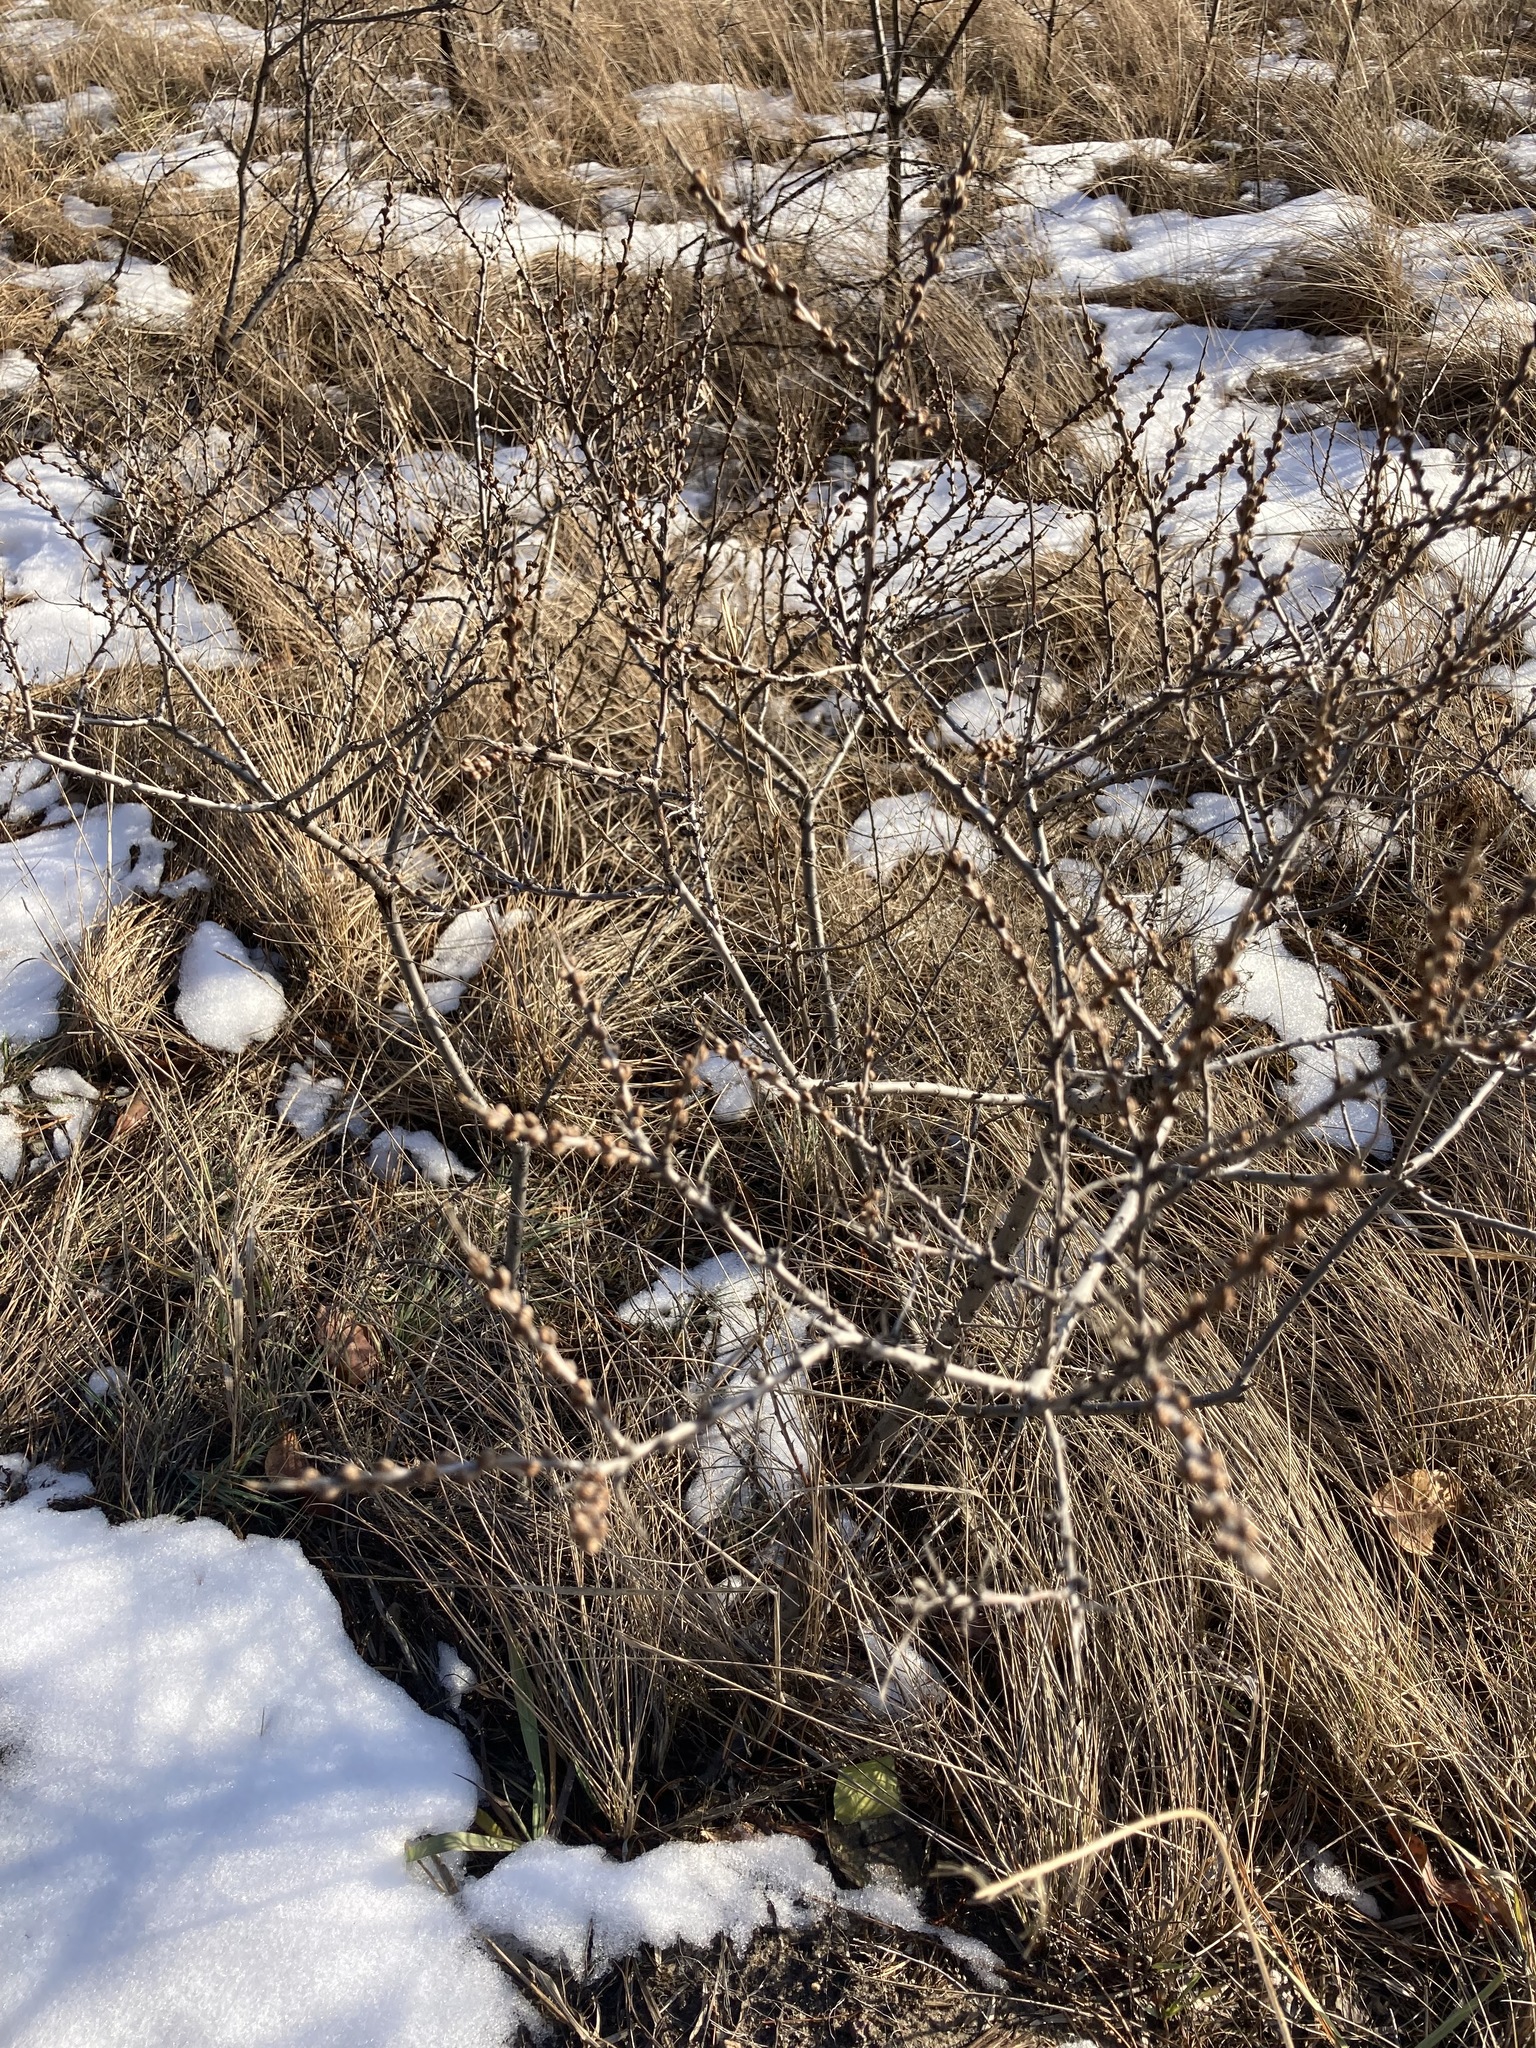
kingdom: Plantae
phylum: Tracheophyta
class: Magnoliopsida
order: Rosales
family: Elaeagnaceae
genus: Hippophae
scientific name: Hippophae rhamnoides
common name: Sea-buckthorn
